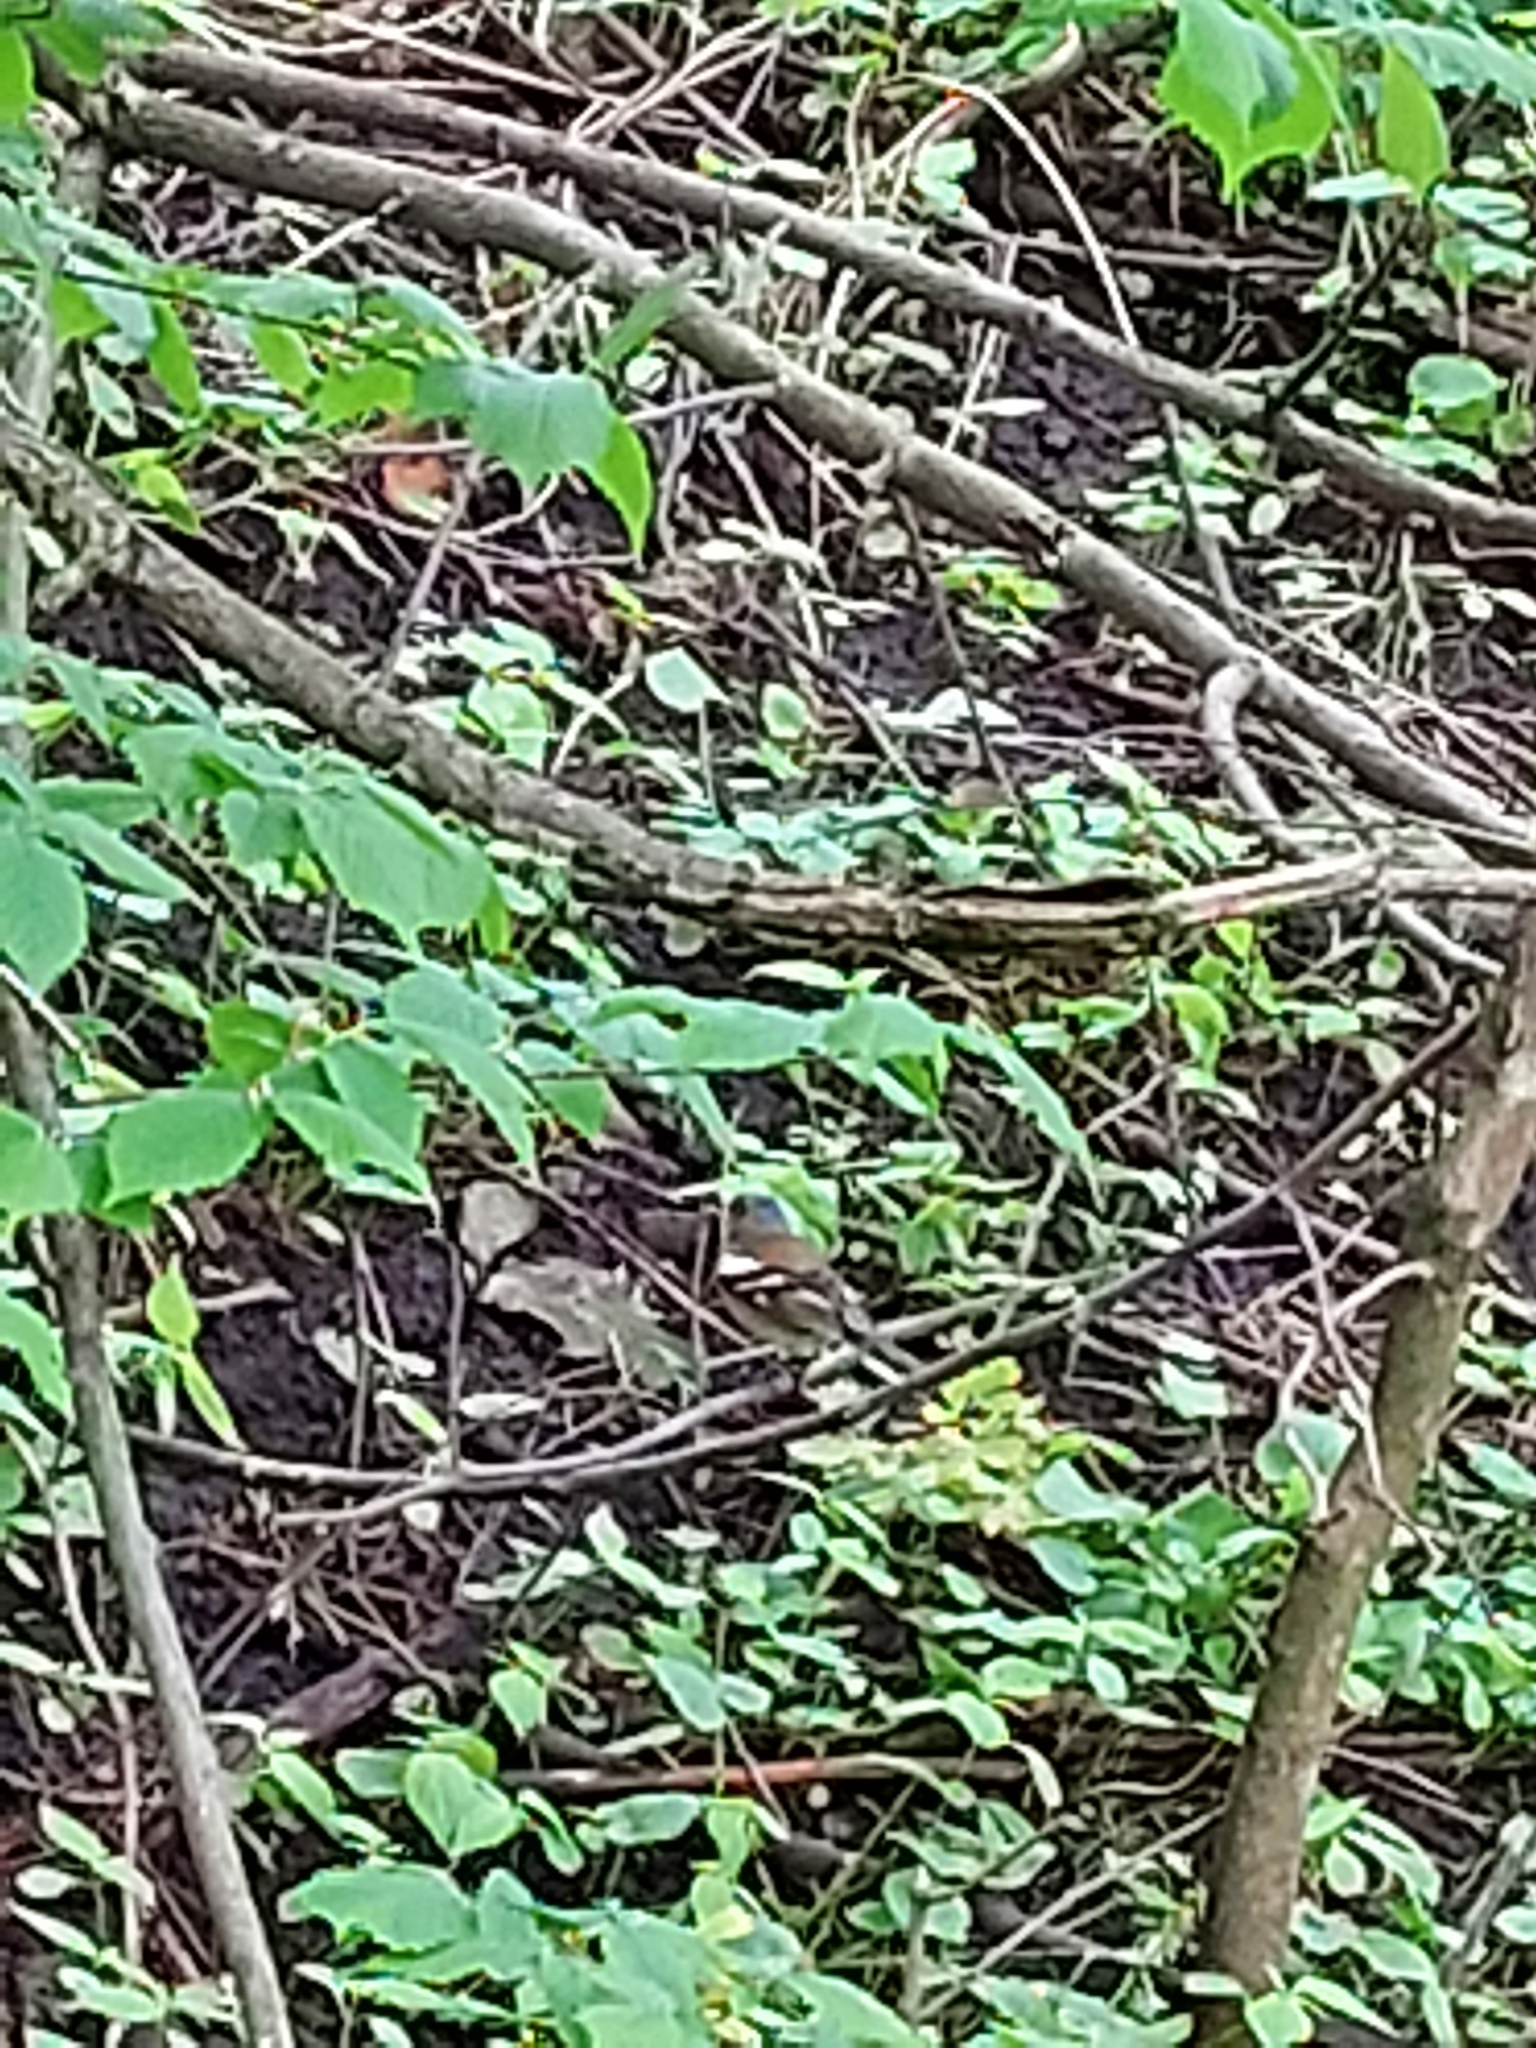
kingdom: Animalia
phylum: Chordata
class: Aves
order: Passeriformes
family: Fringillidae
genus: Fringilla
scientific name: Fringilla coelebs
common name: Common chaffinch
